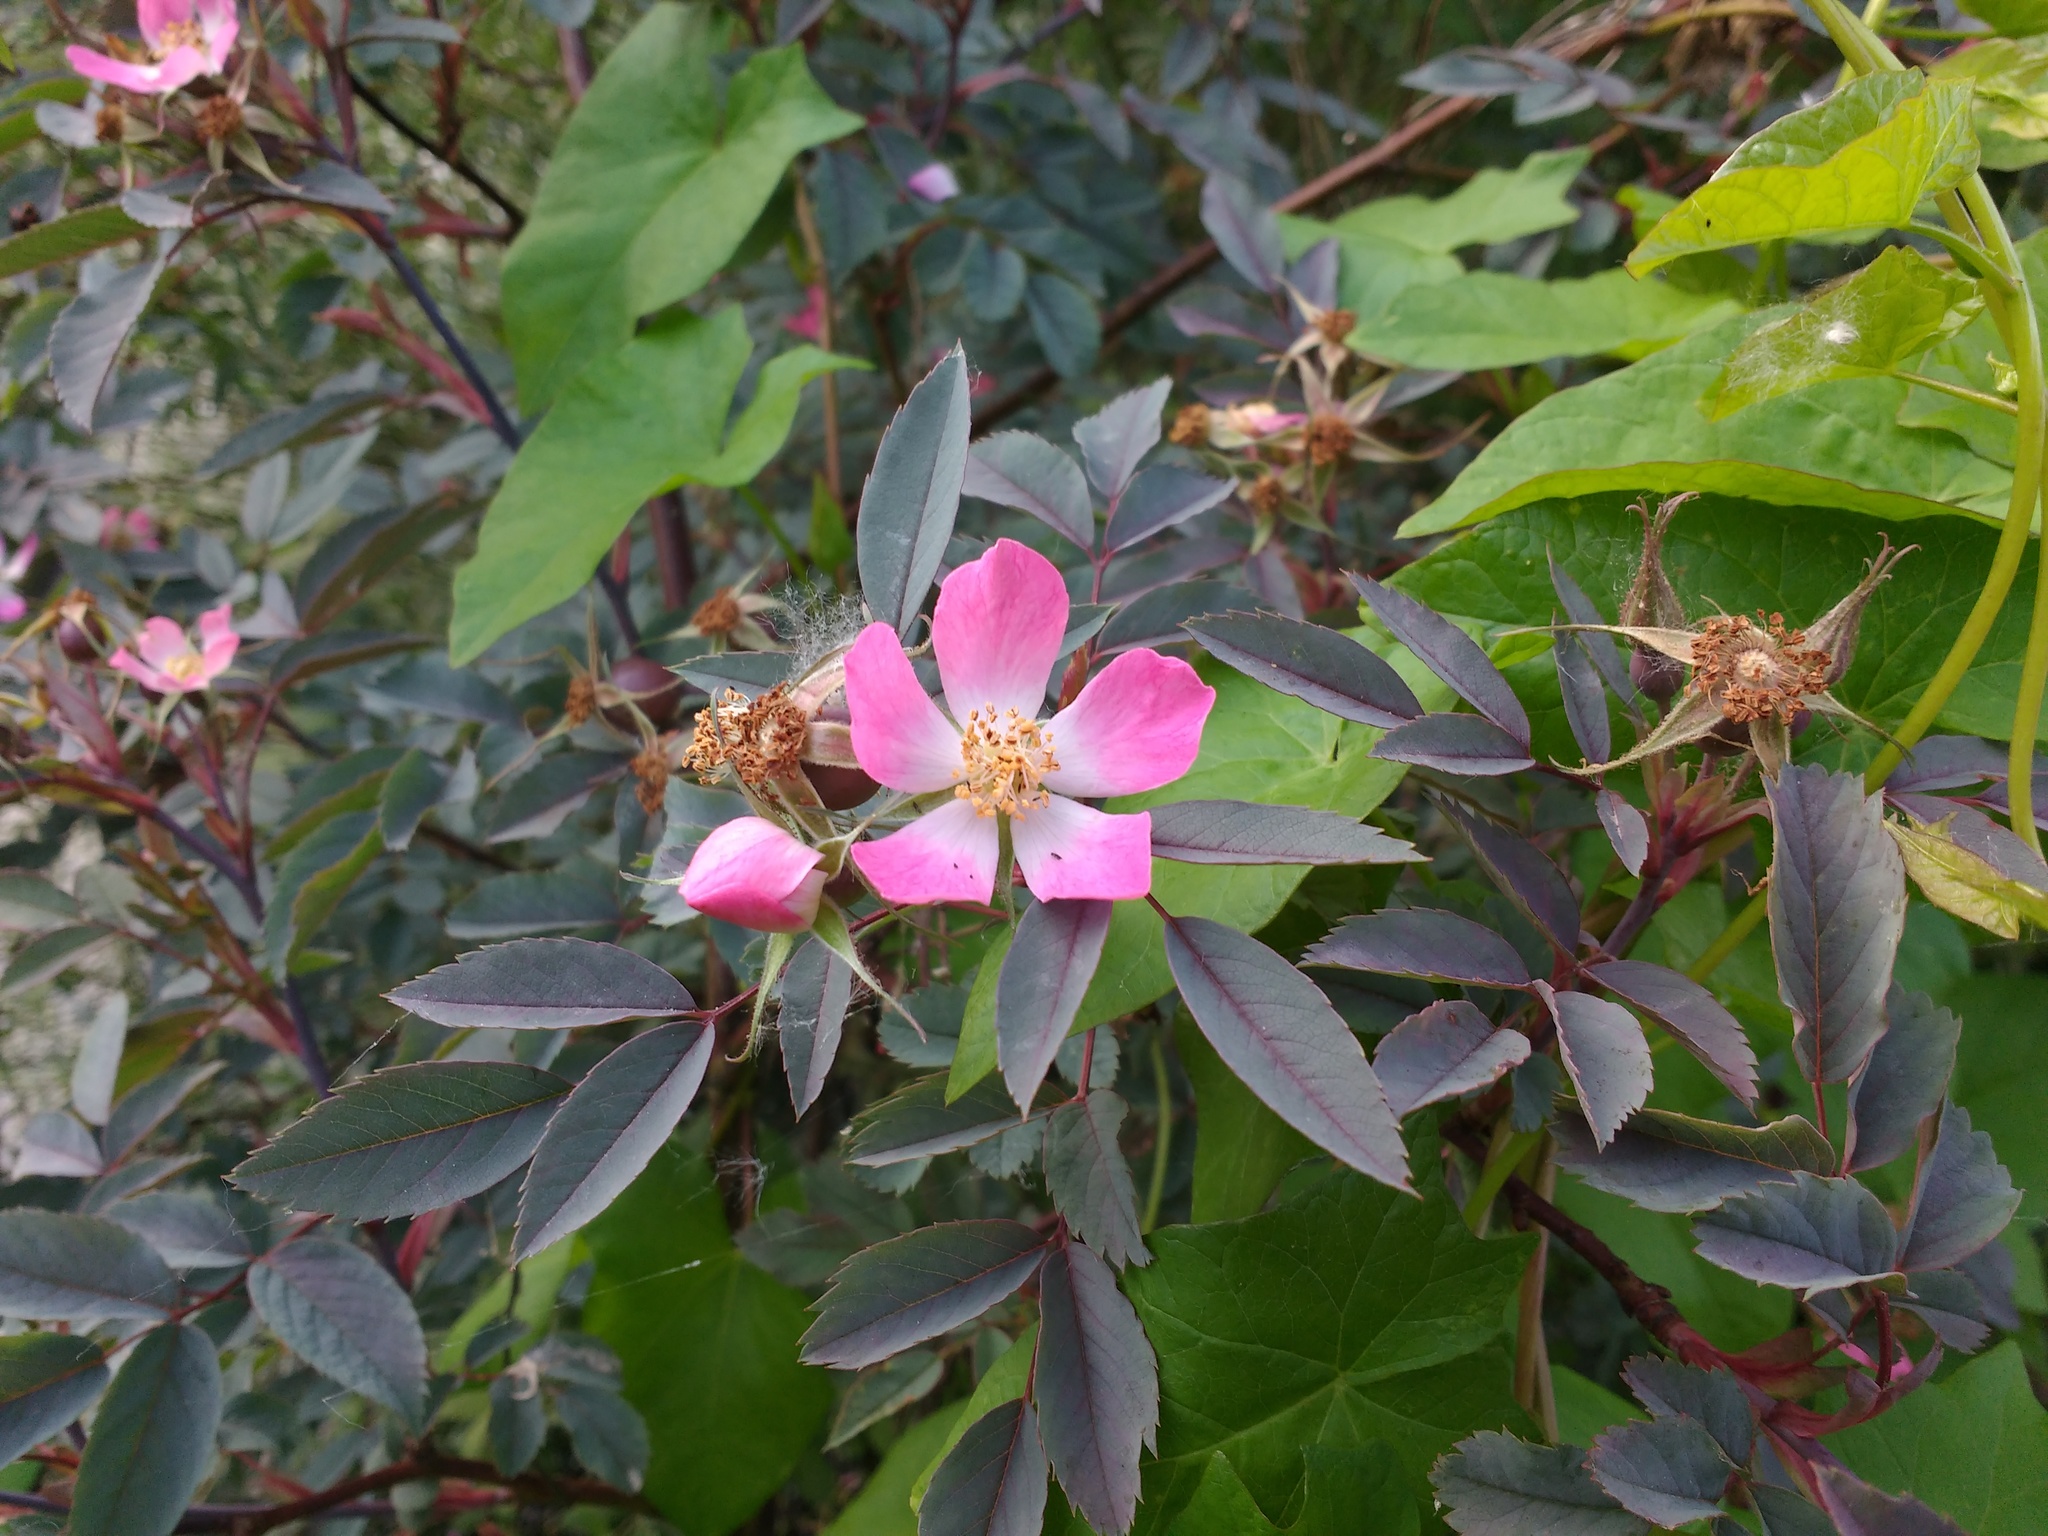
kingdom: Plantae
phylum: Tracheophyta
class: Magnoliopsida
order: Rosales
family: Rosaceae
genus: Rosa
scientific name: Rosa glauca
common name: Redleaf rose
